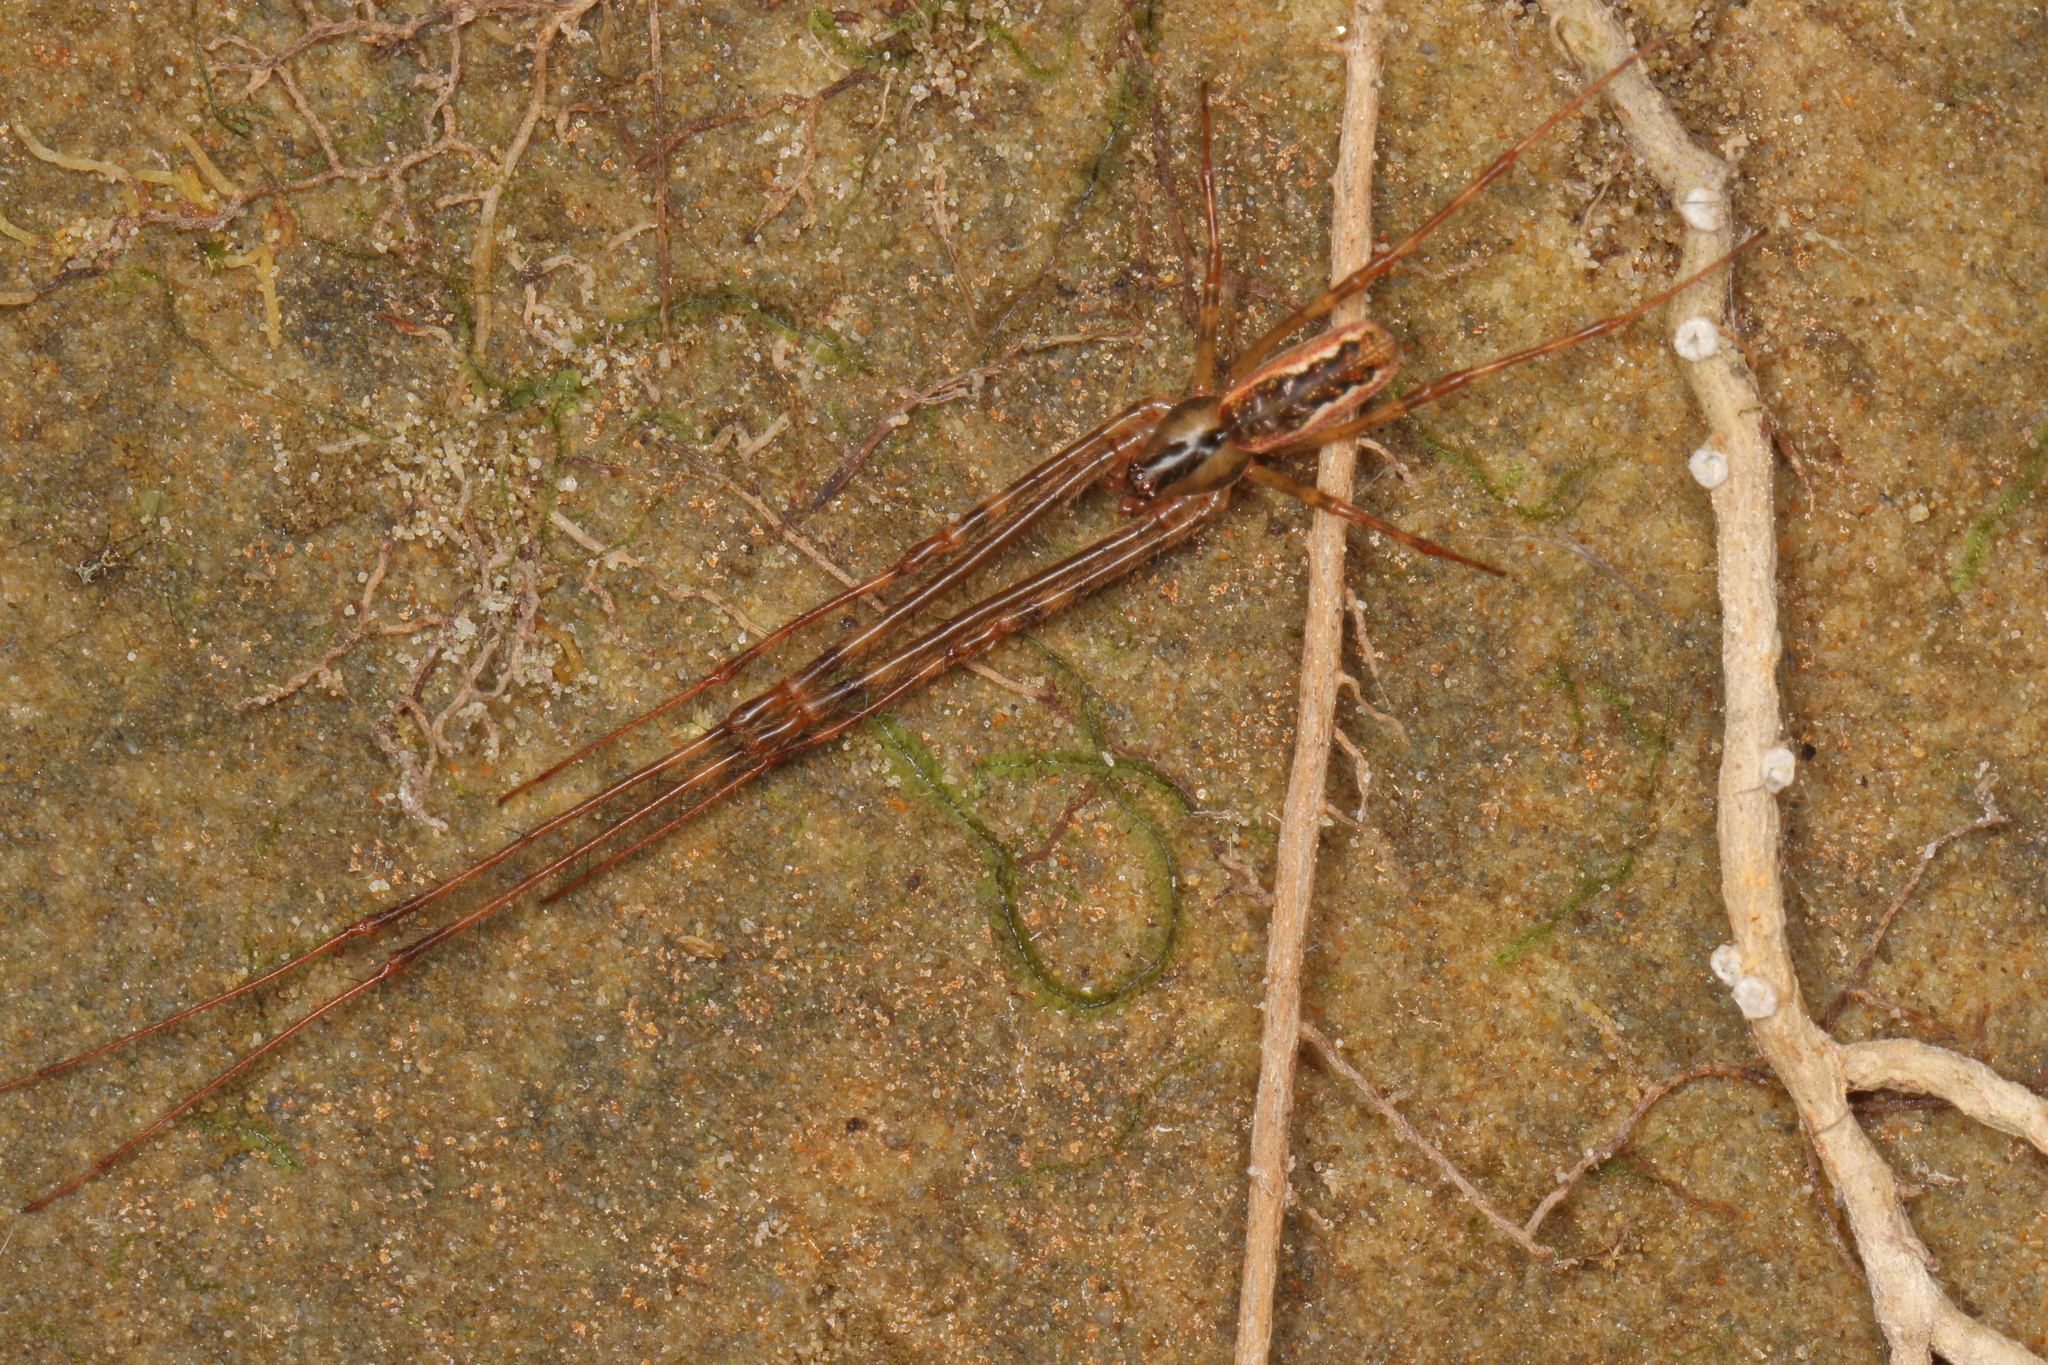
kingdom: Animalia
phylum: Arthropoda
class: Arachnida
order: Araneae
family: Tetragnathidae
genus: Nanometa
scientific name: Nanometa lagenifera
